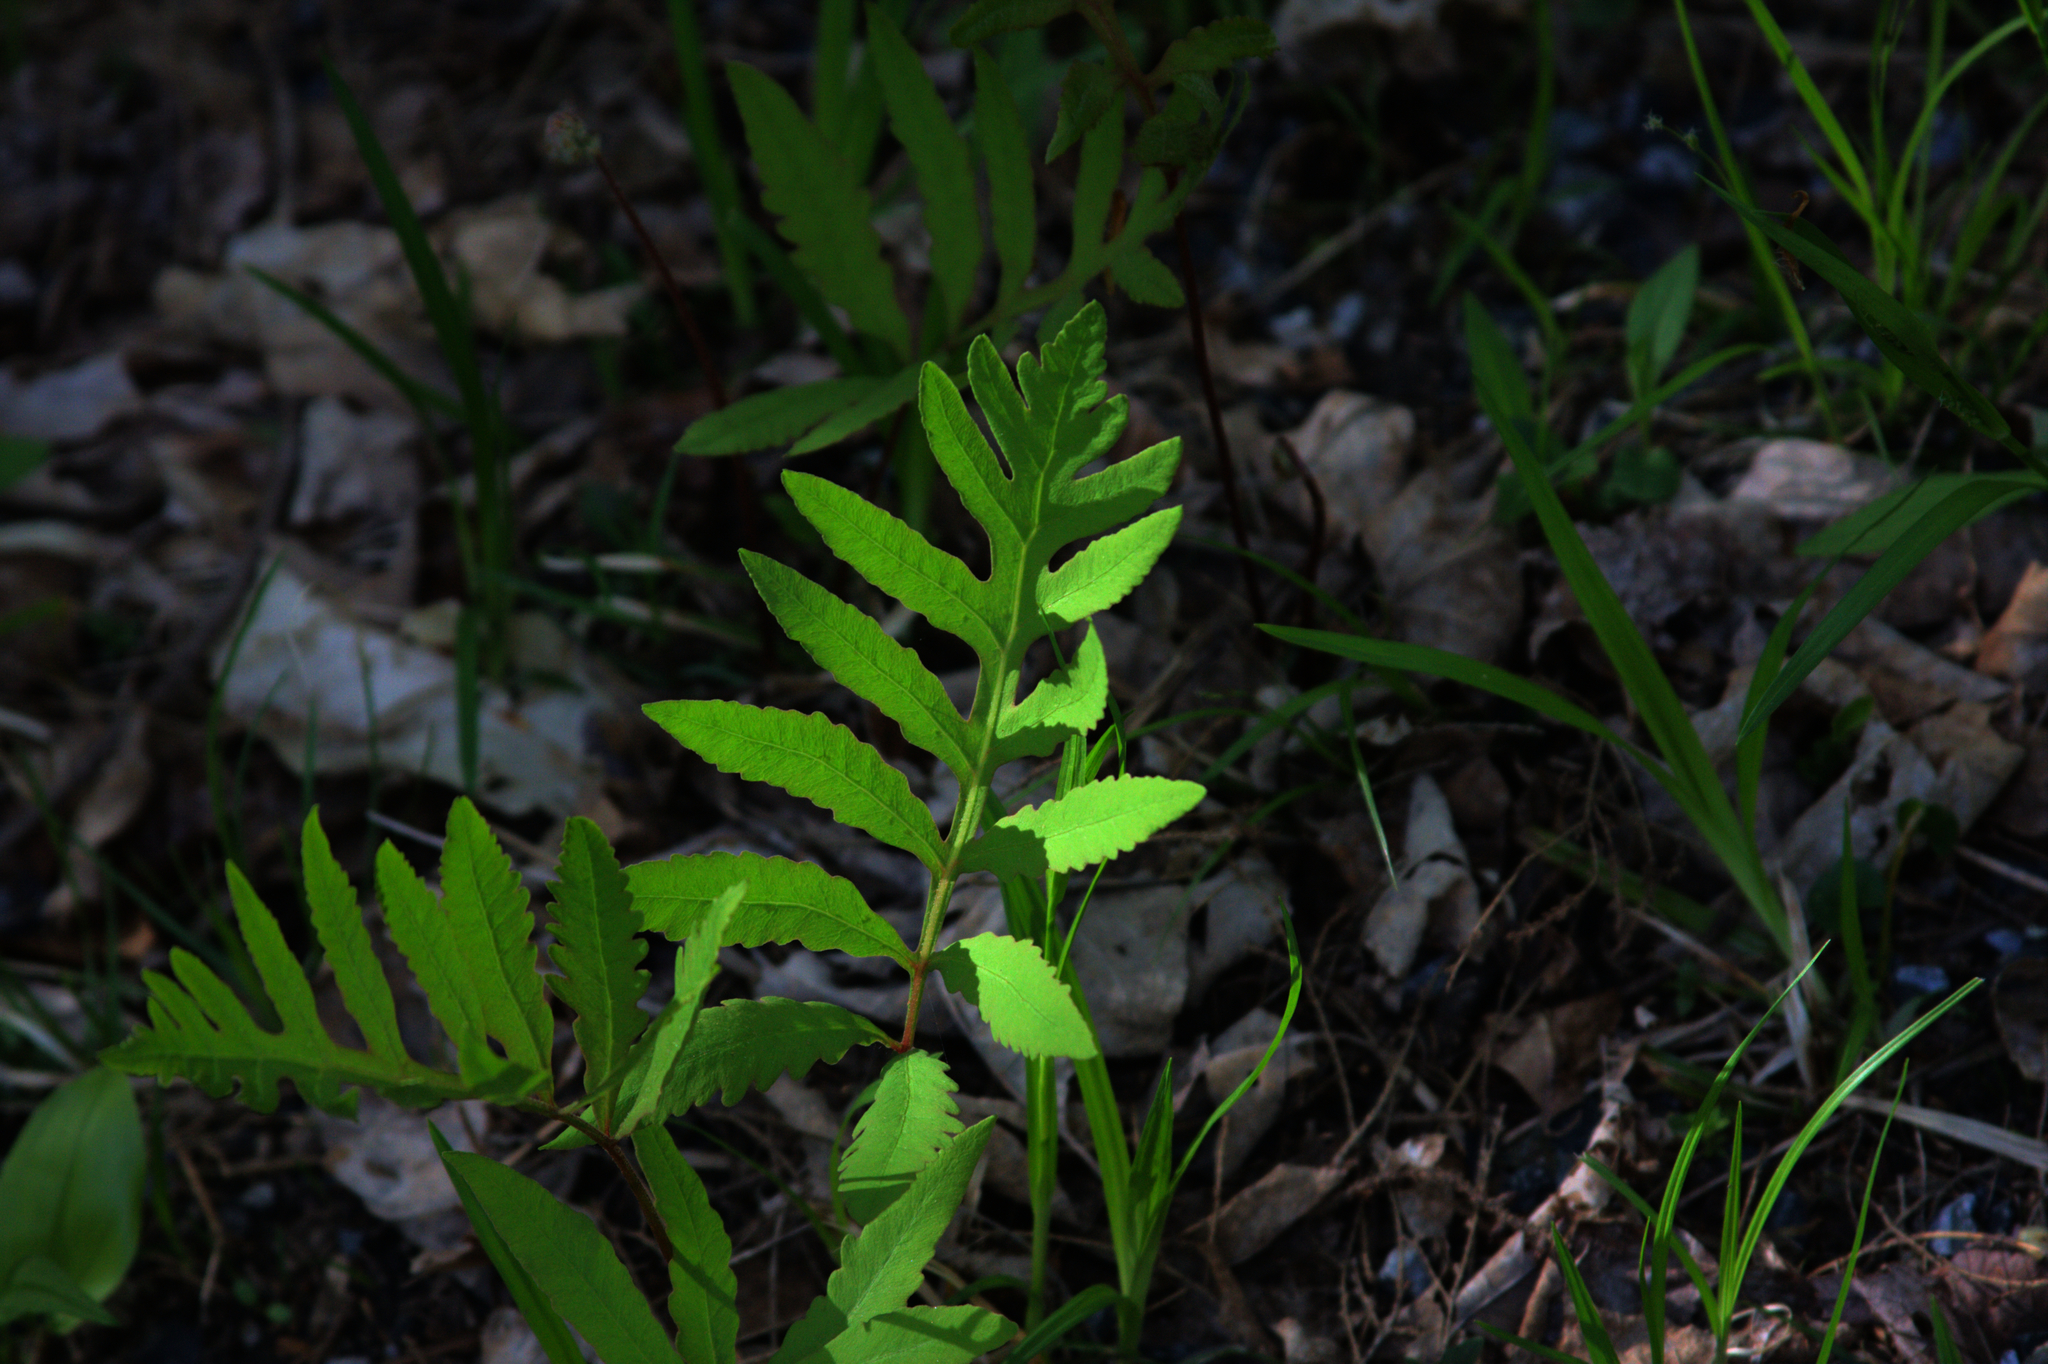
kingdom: Plantae
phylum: Tracheophyta
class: Polypodiopsida
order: Polypodiales
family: Onocleaceae
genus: Onoclea
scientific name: Onoclea sensibilis
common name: Sensitive fern
